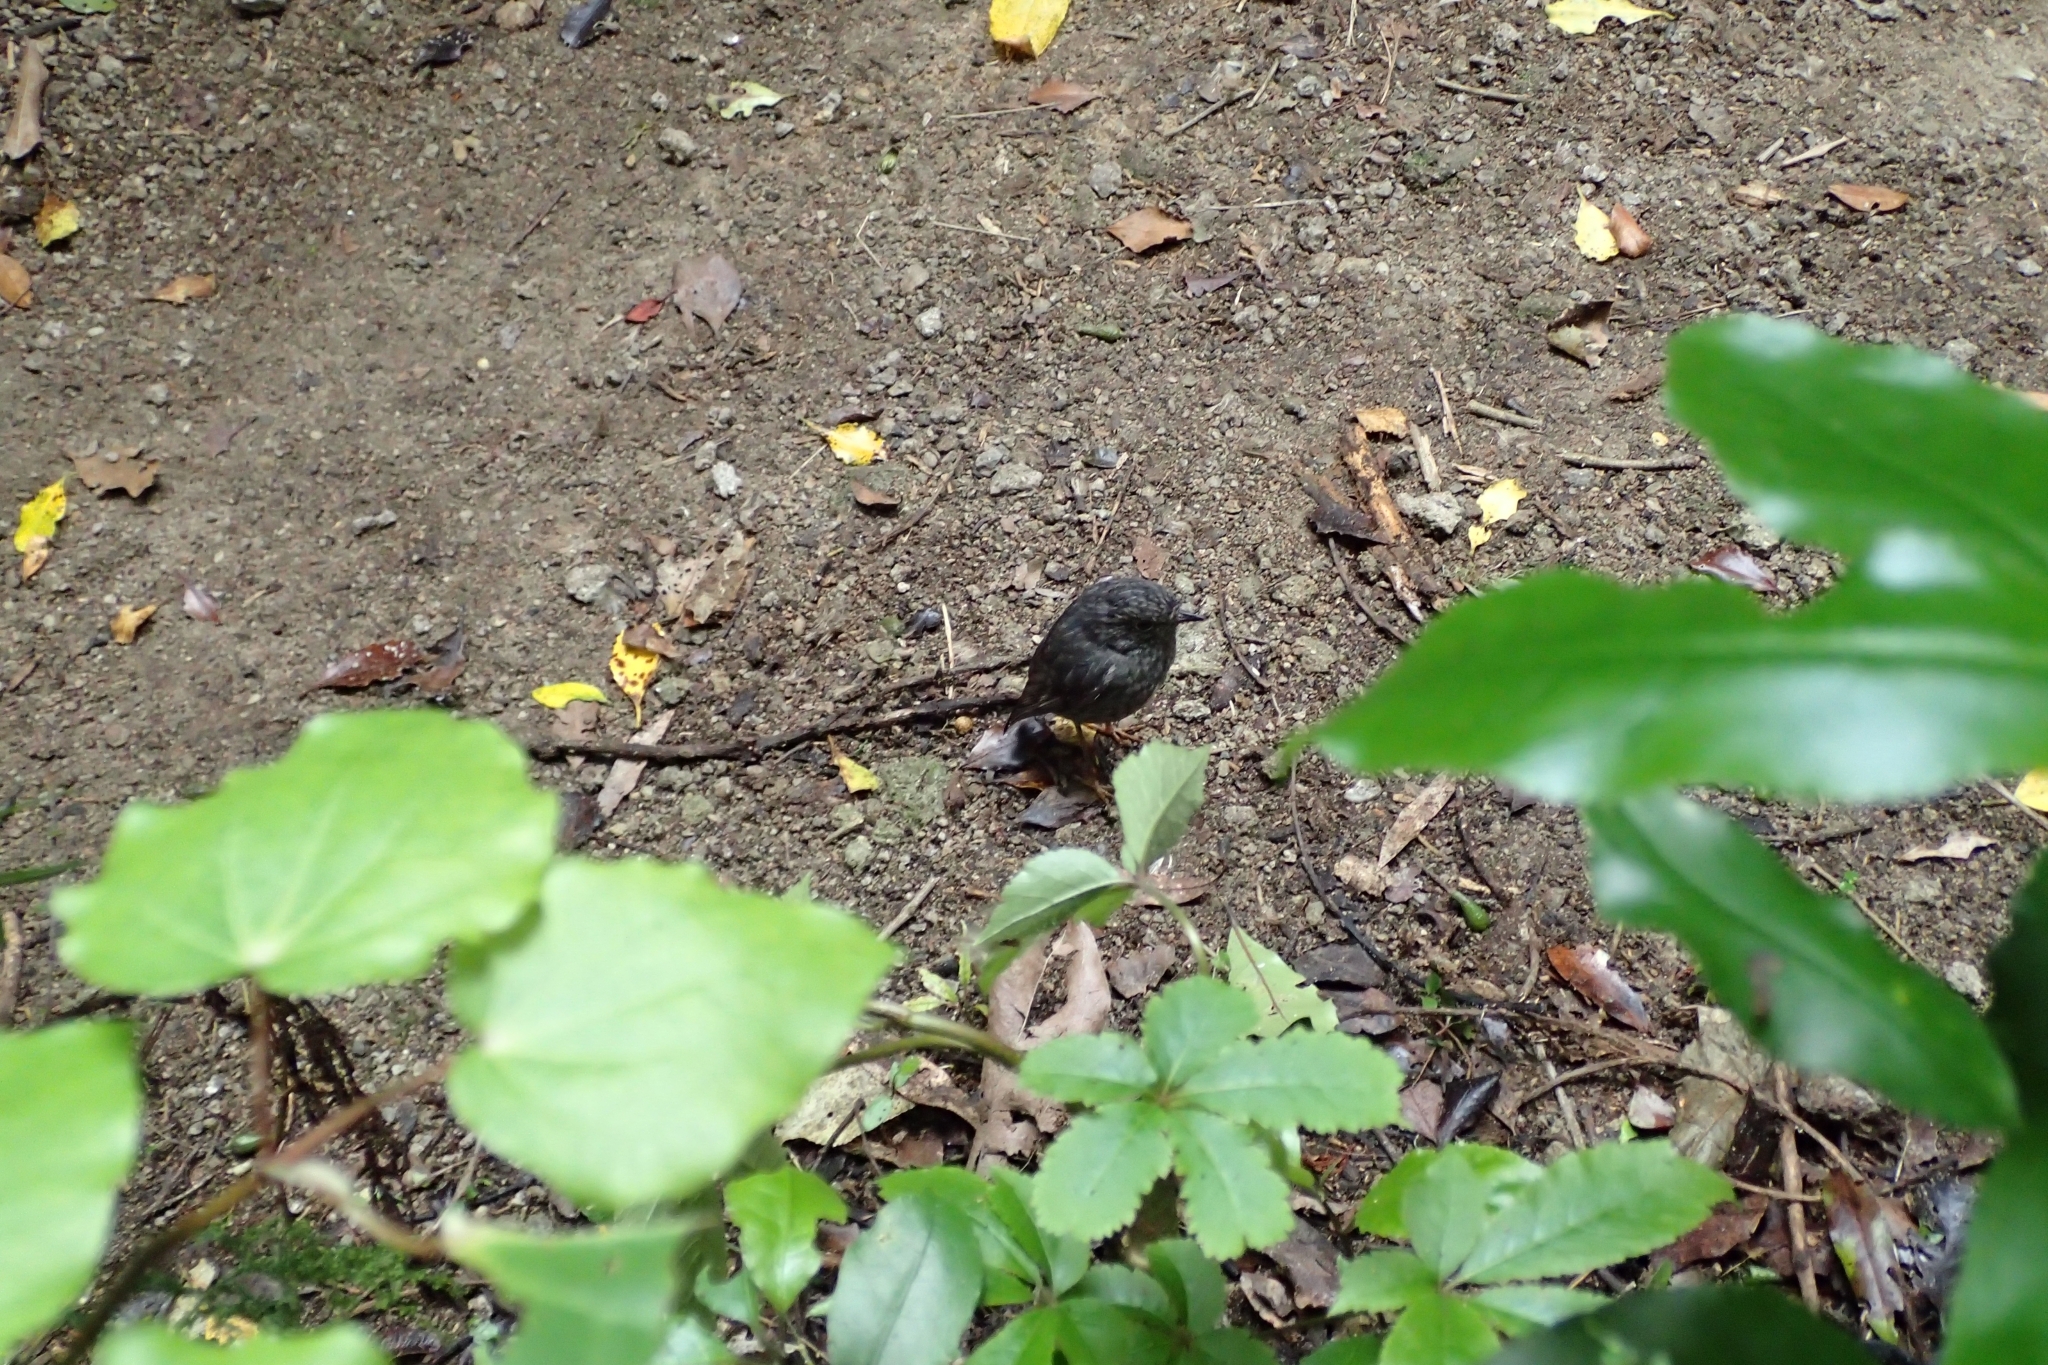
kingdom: Animalia
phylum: Chordata
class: Aves
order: Passeriformes
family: Petroicidae
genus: Petroica
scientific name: Petroica australis
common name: New zealand robin
